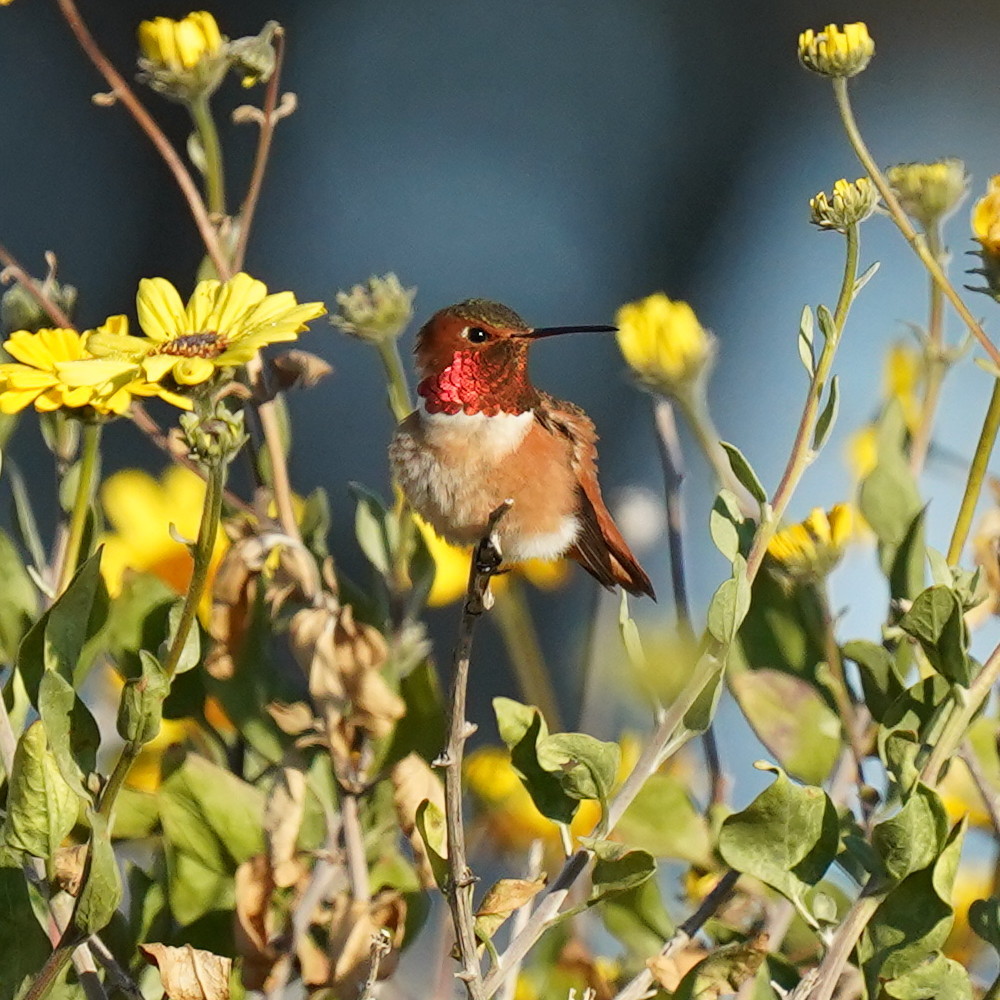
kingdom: Animalia
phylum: Chordata
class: Aves
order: Apodiformes
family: Trochilidae
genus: Selasphorus
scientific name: Selasphorus sasin
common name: Allen's hummingbird
